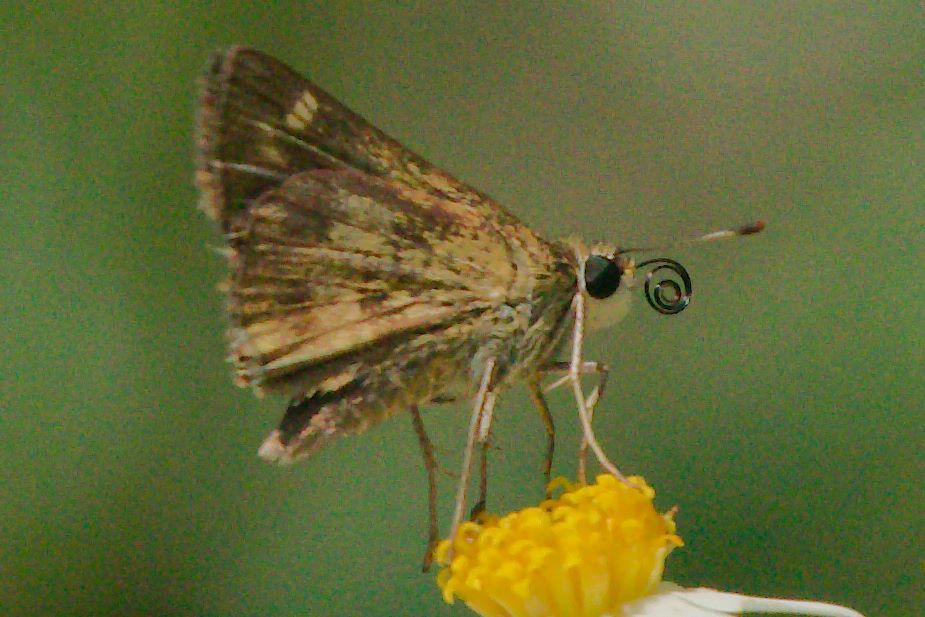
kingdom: Animalia
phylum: Arthropoda
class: Insecta
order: Lepidoptera
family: Hesperiidae
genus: Polites
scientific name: Polites vibex
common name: Whirlabout
